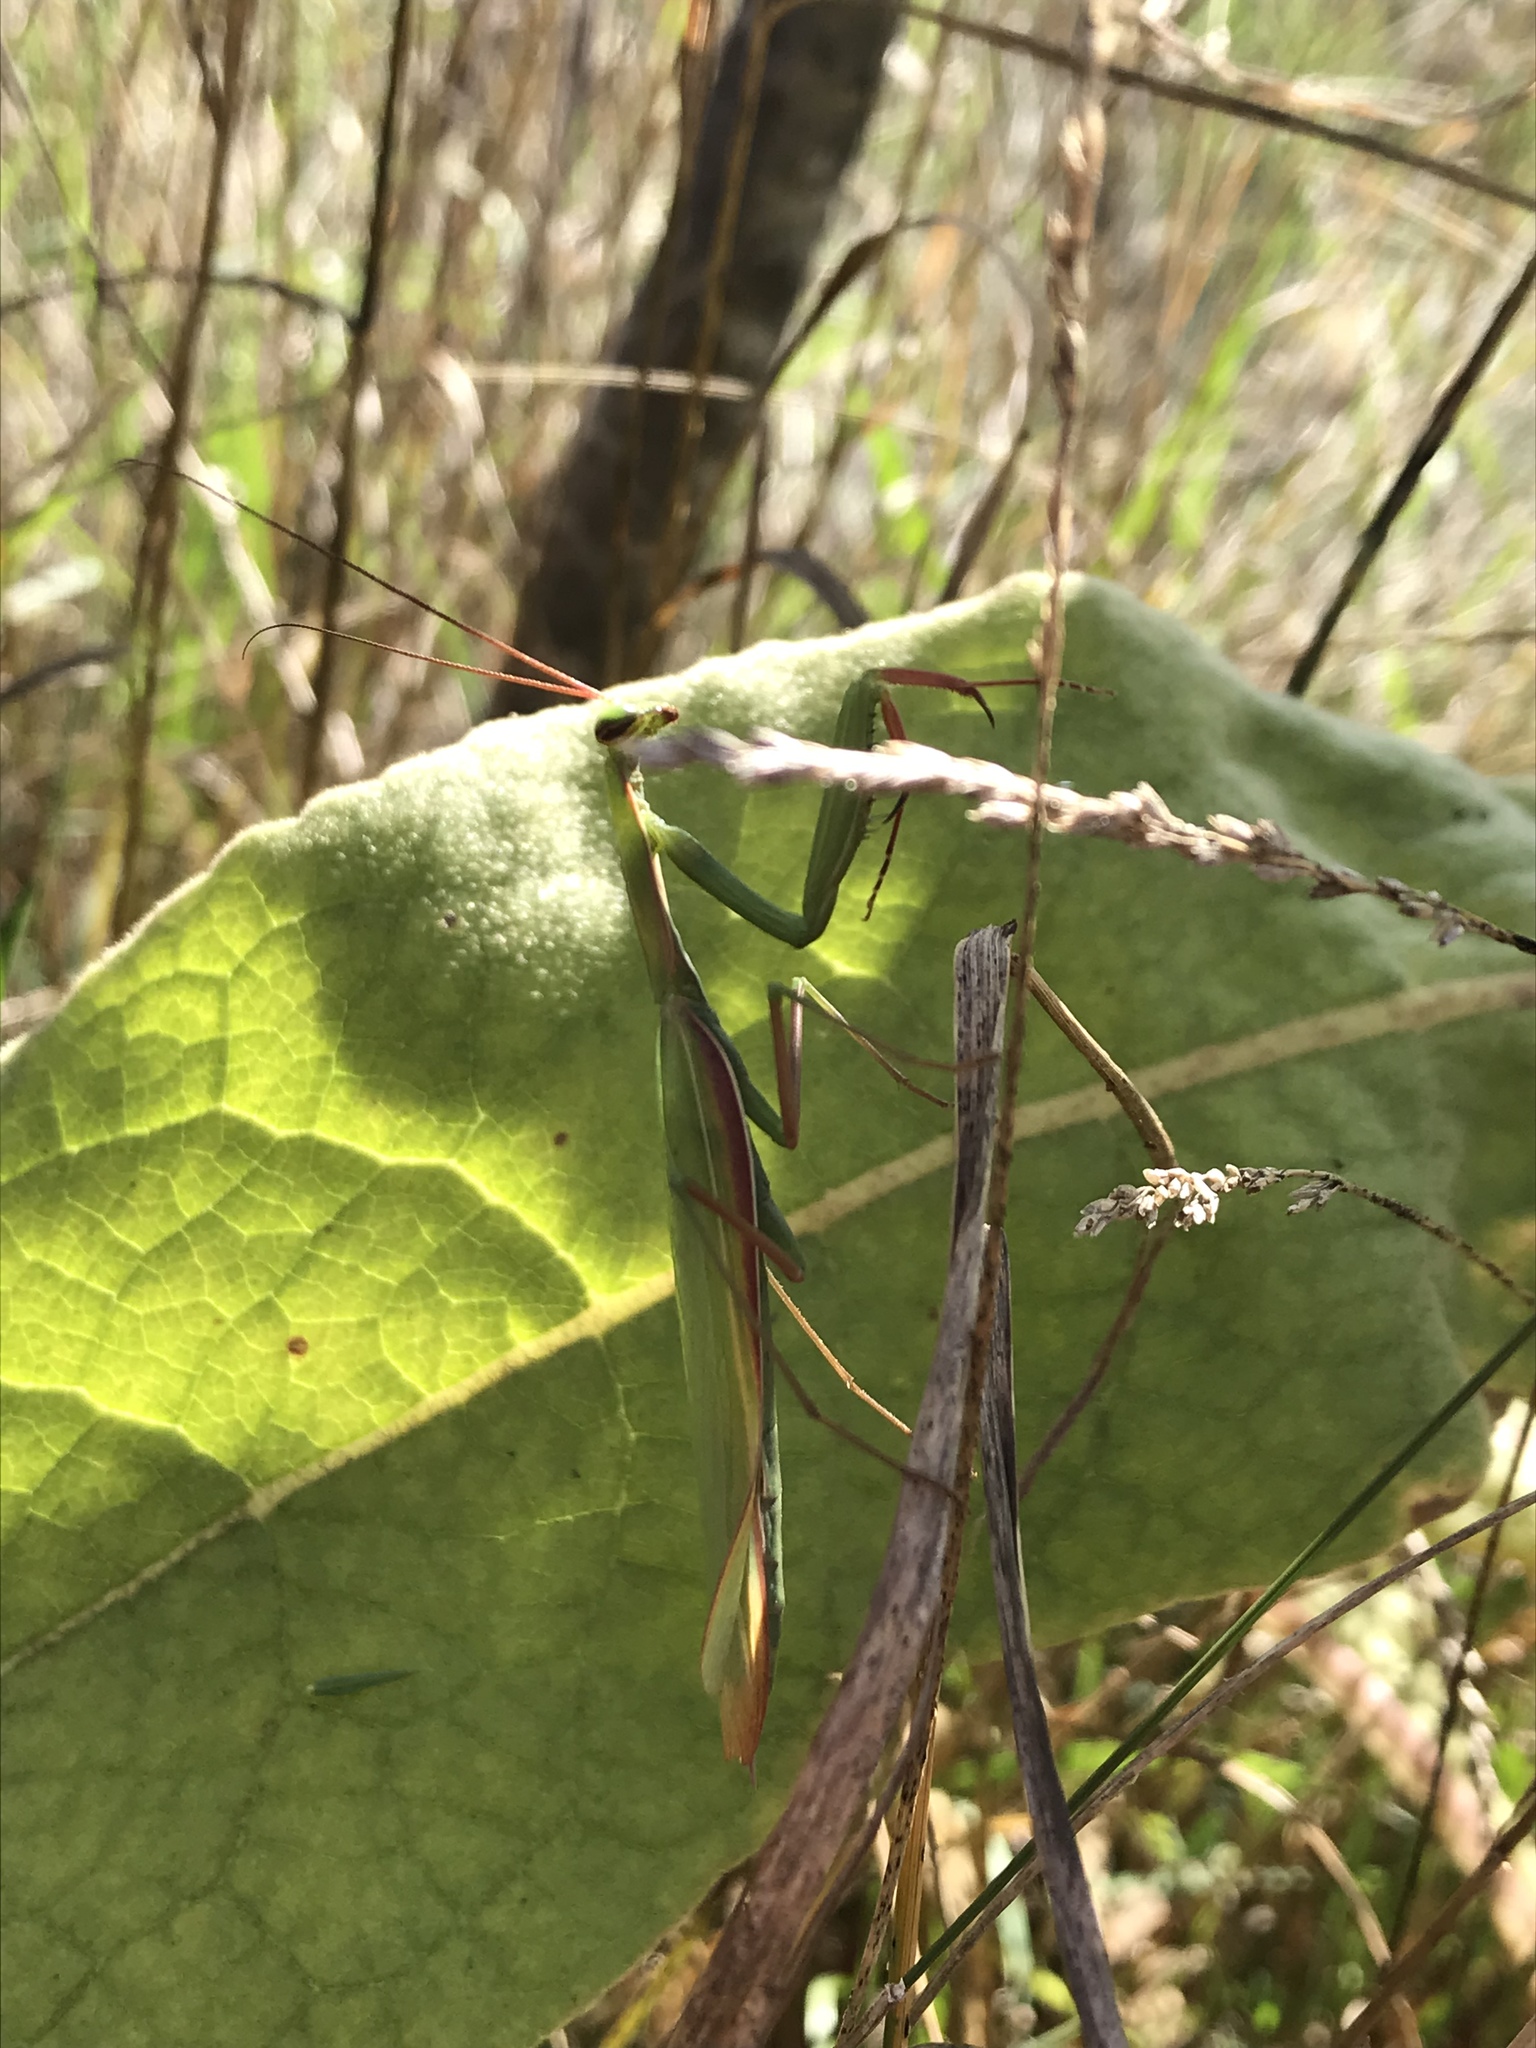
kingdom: Animalia
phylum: Arthropoda
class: Insecta
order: Mantodea
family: Mantidae
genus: Mantis
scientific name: Mantis religiosa
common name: Praying mantis
